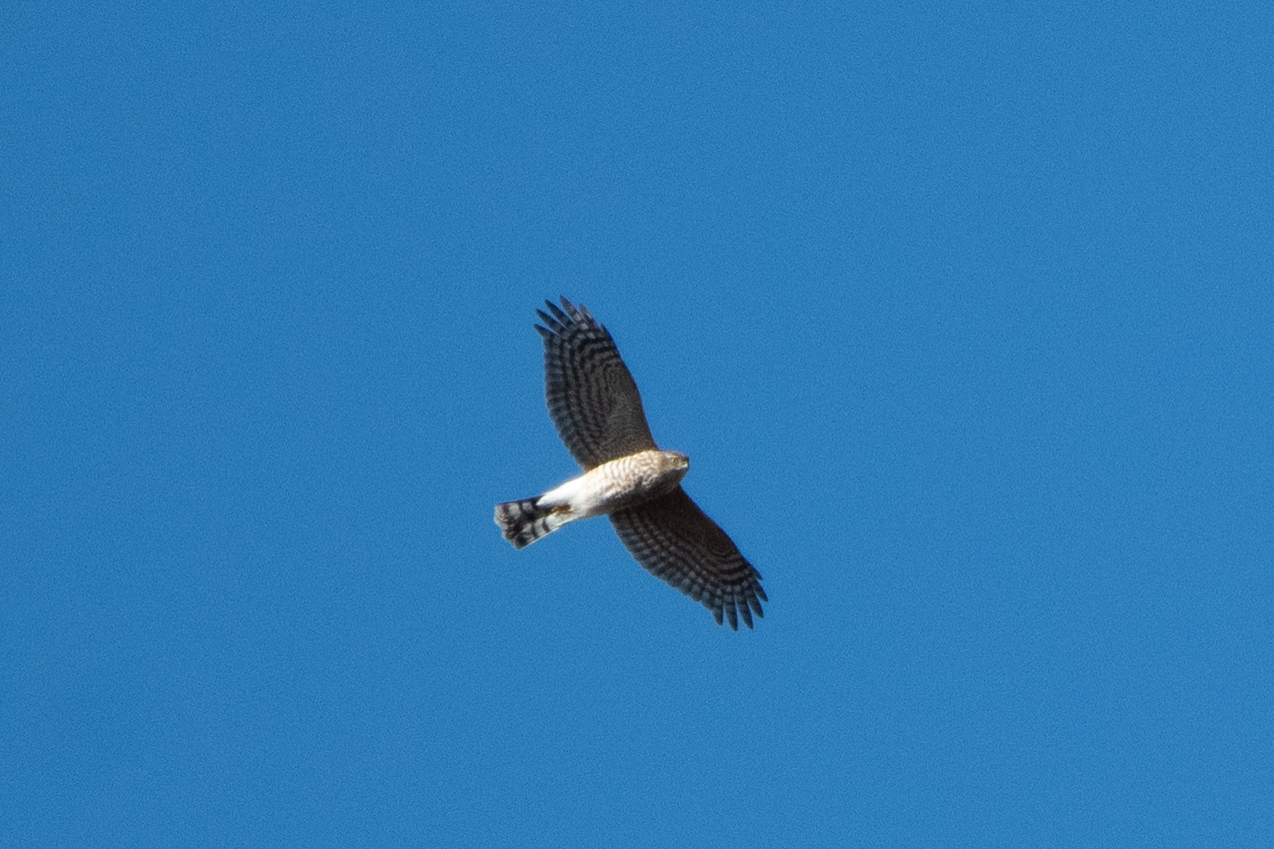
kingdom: Animalia
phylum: Chordata
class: Aves
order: Accipitriformes
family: Accipitridae
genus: Accipiter
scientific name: Accipiter striatus
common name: Sharp-shinned hawk
